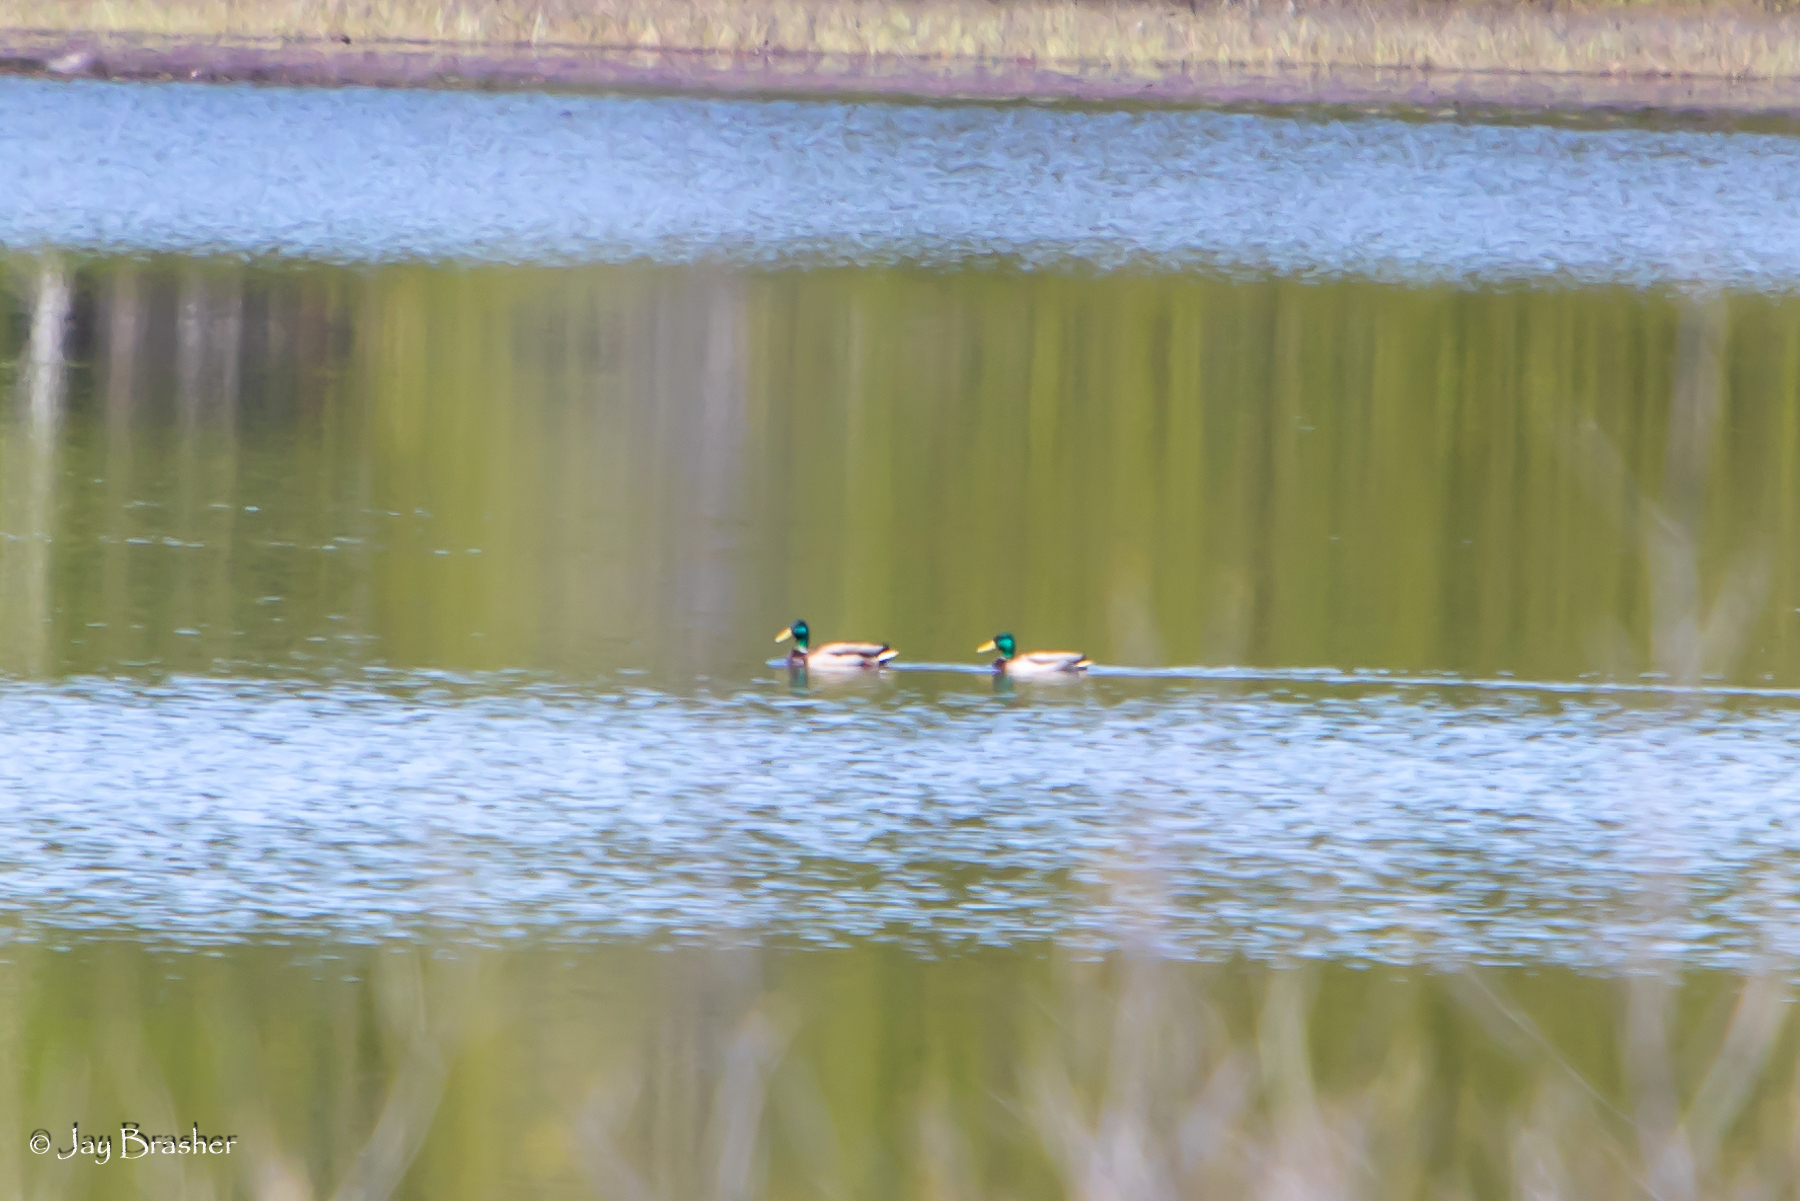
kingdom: Animalia
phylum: Chordata
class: Aves
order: Anseriformes
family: Anatidae
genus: Anas
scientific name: Anas platyrhynchos
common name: Mallard
